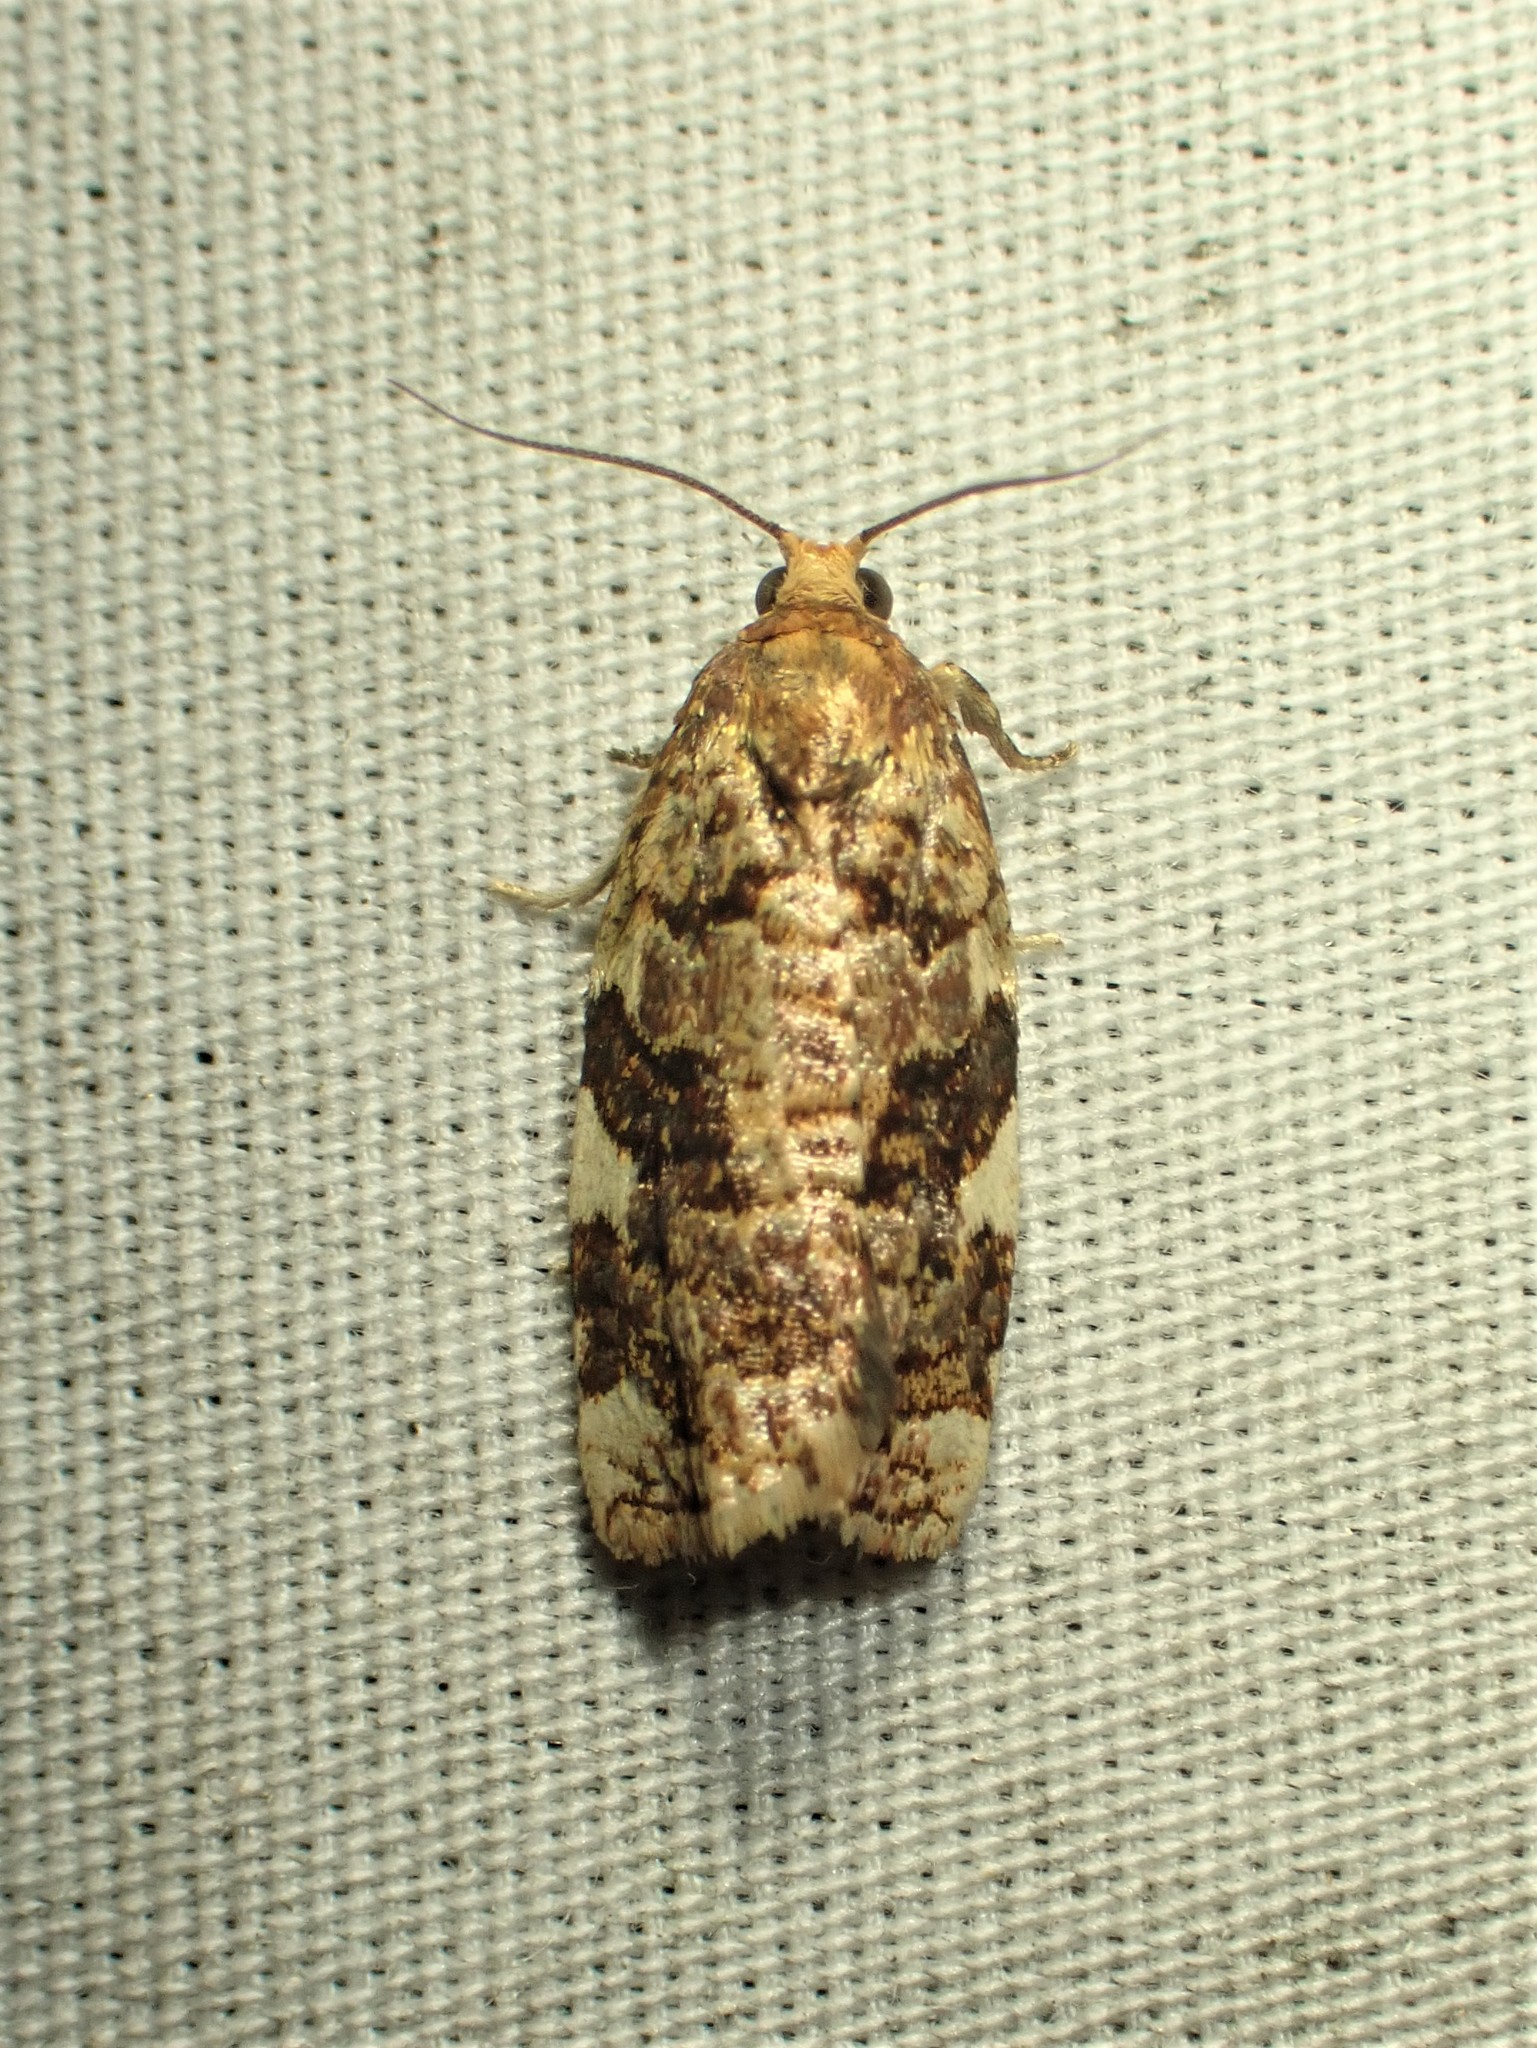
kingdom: Animalia
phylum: Arthropoda
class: Insecta
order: Lepidoptera
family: Tortricidae
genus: Archips
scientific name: Archips argyrospila
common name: Fruit-tree leafroller moth
